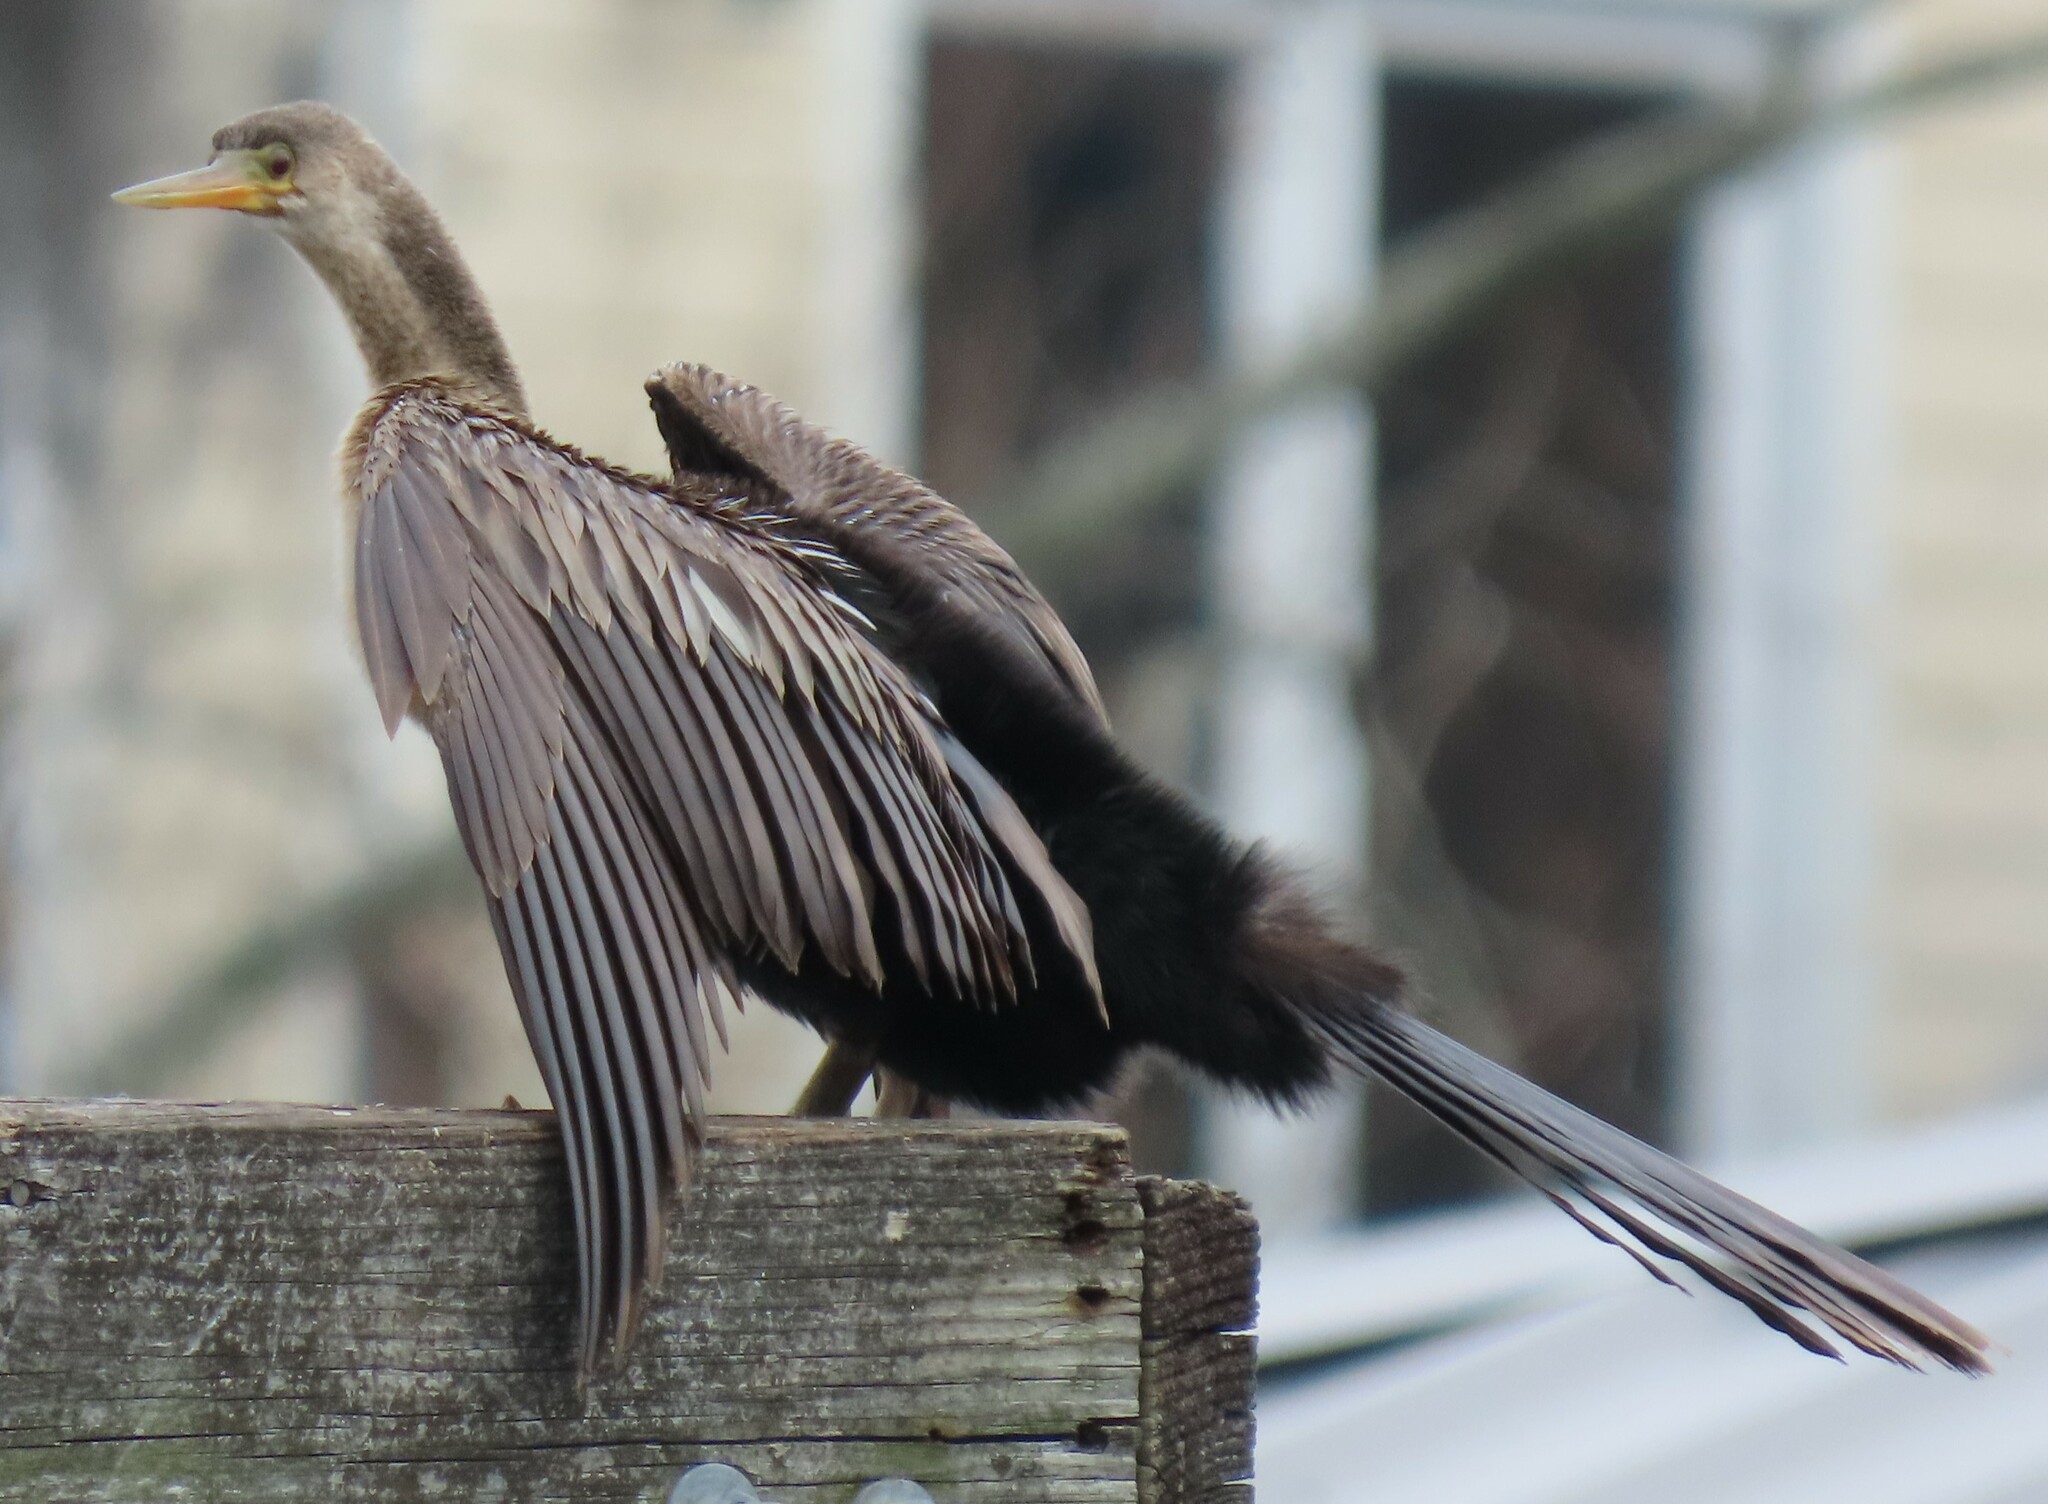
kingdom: Animalia
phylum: Chordata
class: Aves
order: Suliformes
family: Anhingidae
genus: Anhinga
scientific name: Anhinga anhinga
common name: Anhinga
